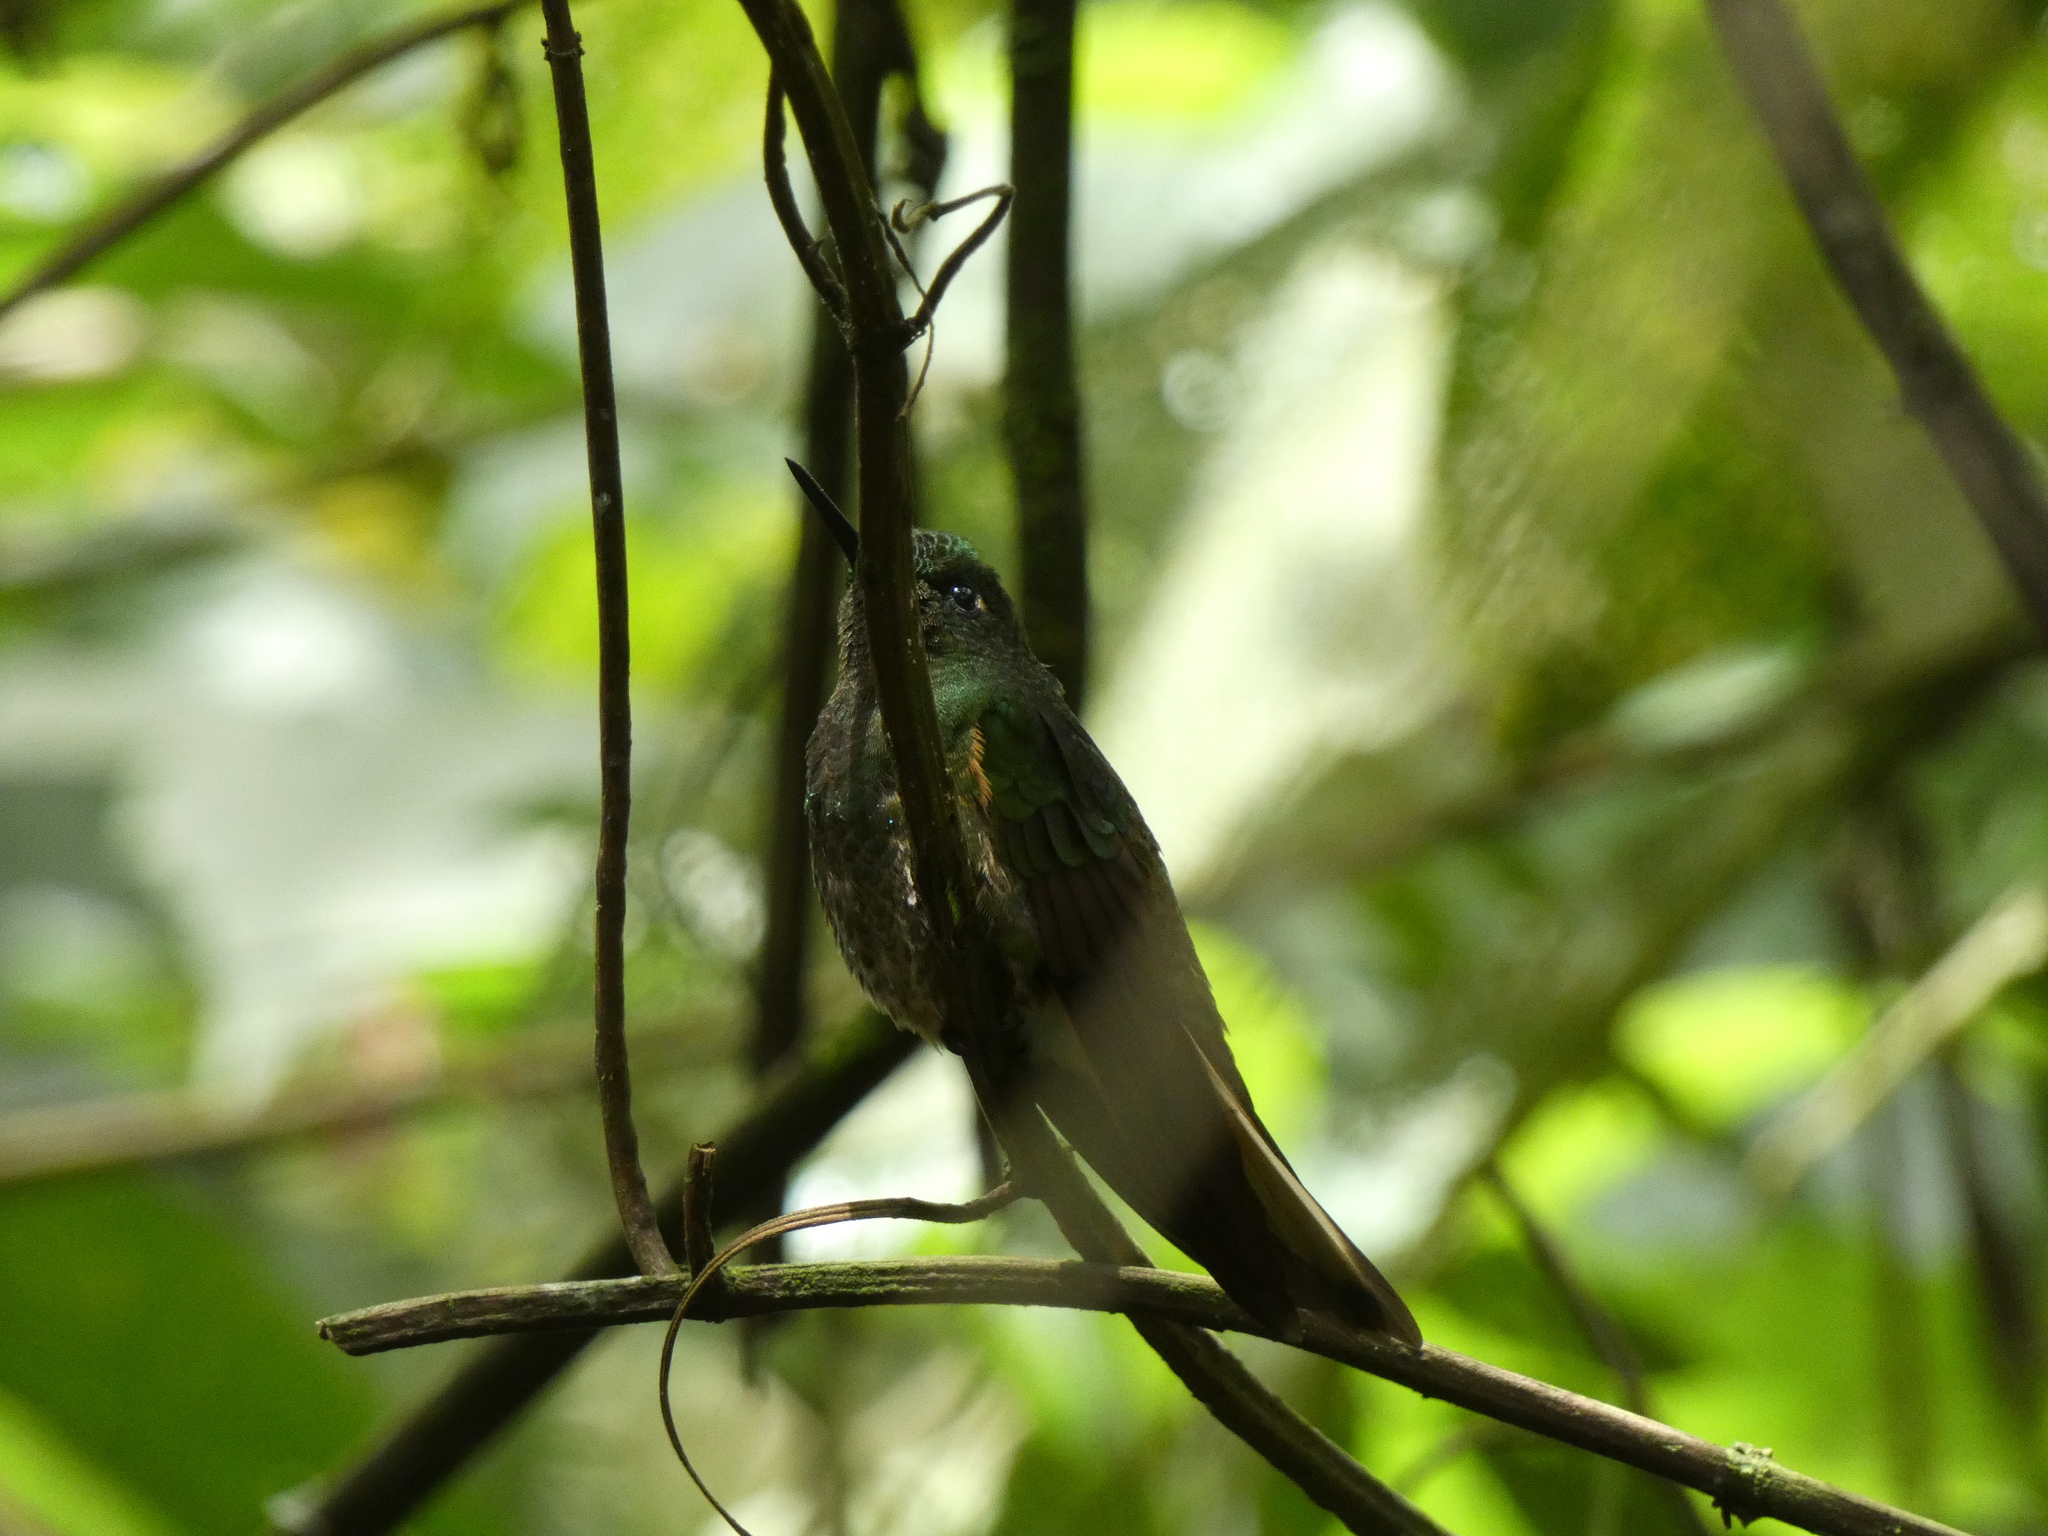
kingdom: Animalia
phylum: Chordata
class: Aves
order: Apodiformes
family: Trochilidae
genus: Boissonneaua
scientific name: Boissonneaua flavescens
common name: Buff-tailed coronet
